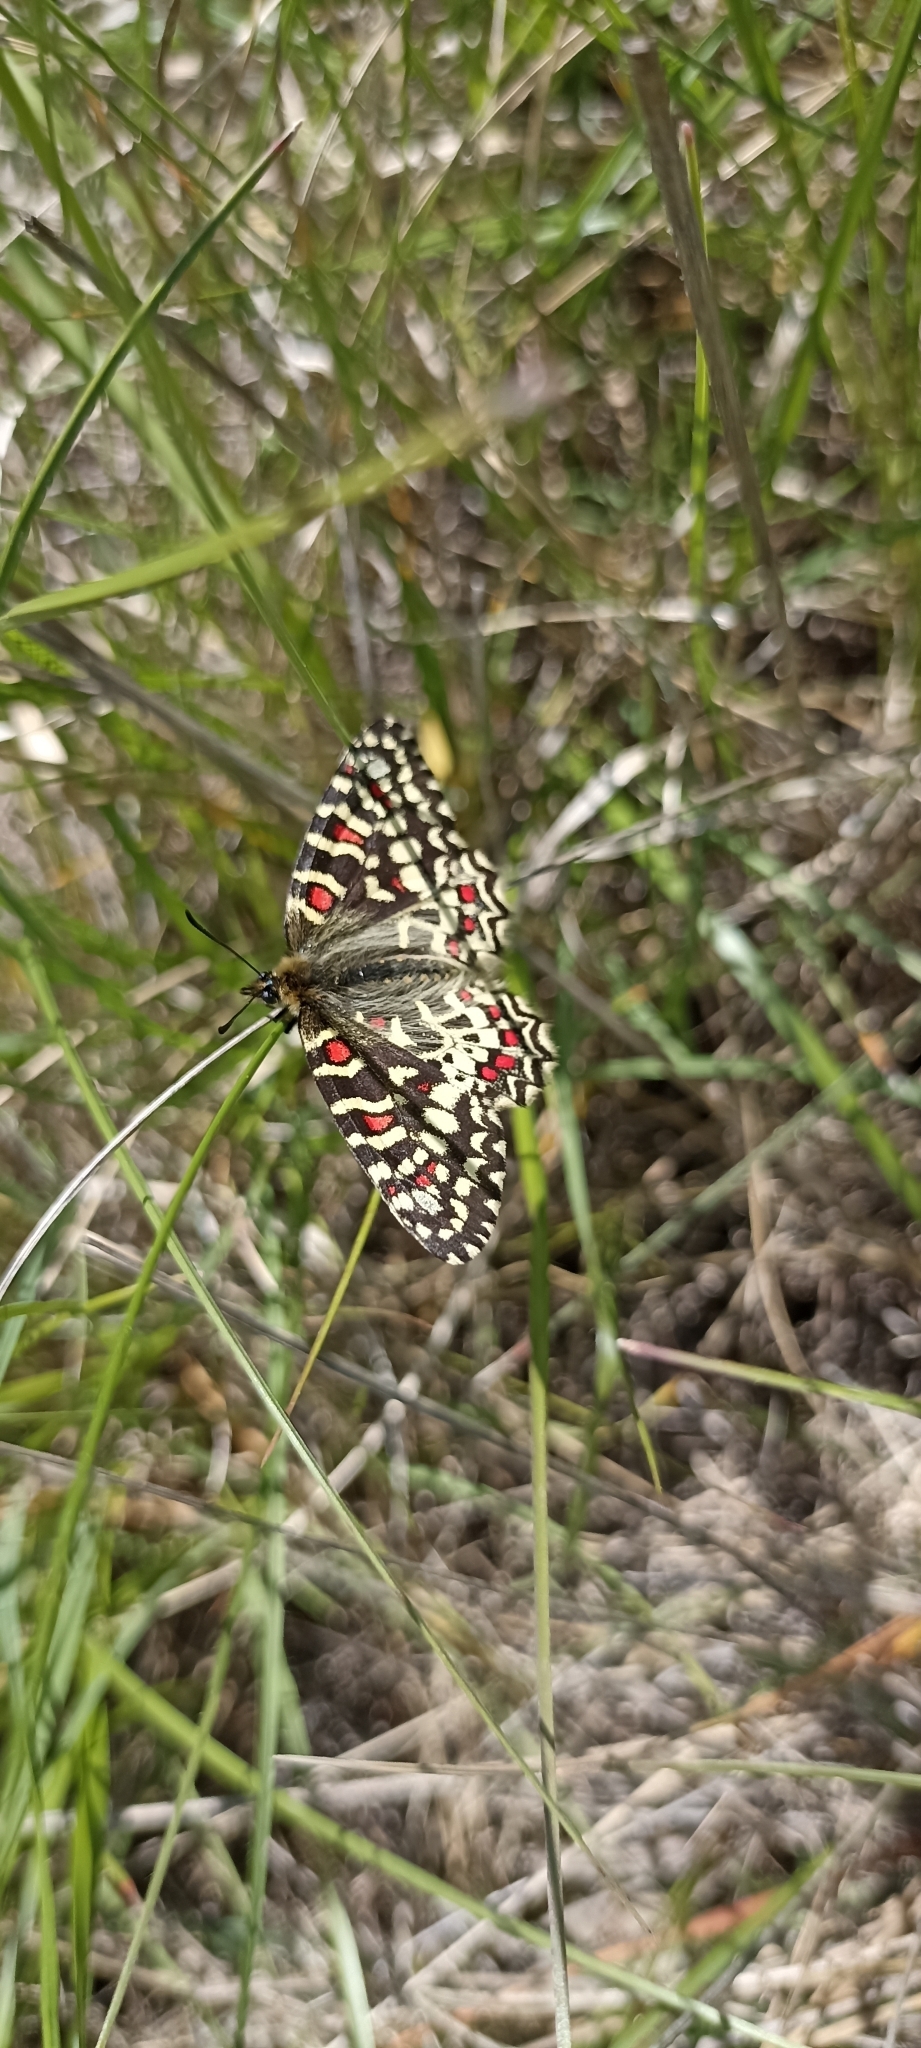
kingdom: Animalia
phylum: Arthropoda
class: Insecta
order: Lepidoptera
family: Papilionidae
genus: Zerynthia
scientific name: Zerynthia rumina
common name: Spanish festoon
